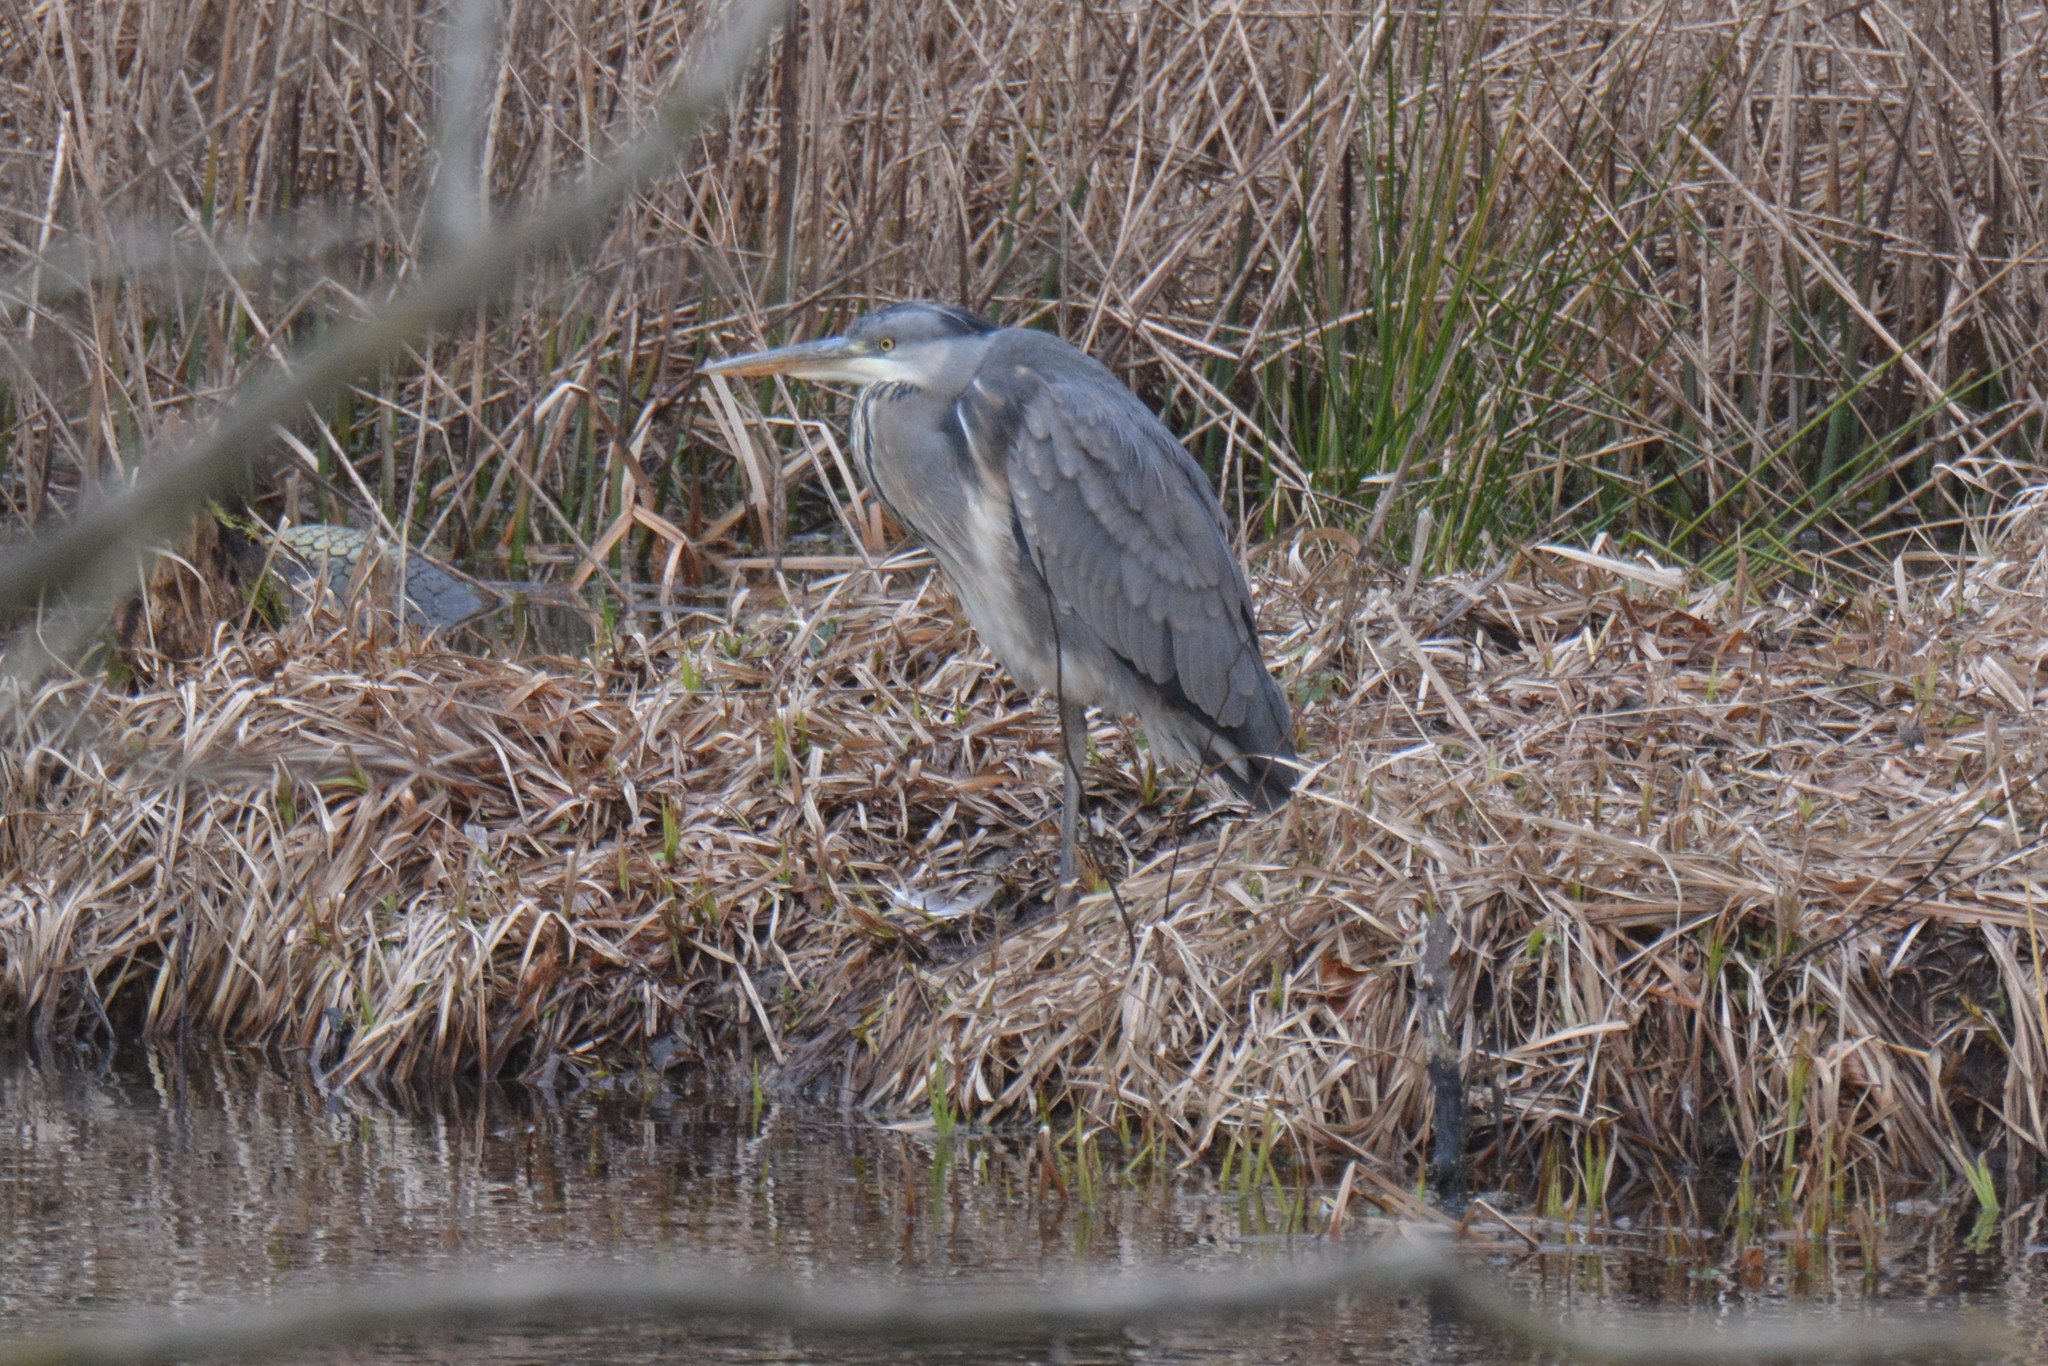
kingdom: Animalia
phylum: Chordata
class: Aves
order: Pelecaniformes
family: Ardeidae
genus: Ardea
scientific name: Ardea cinerea
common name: Grey heron
